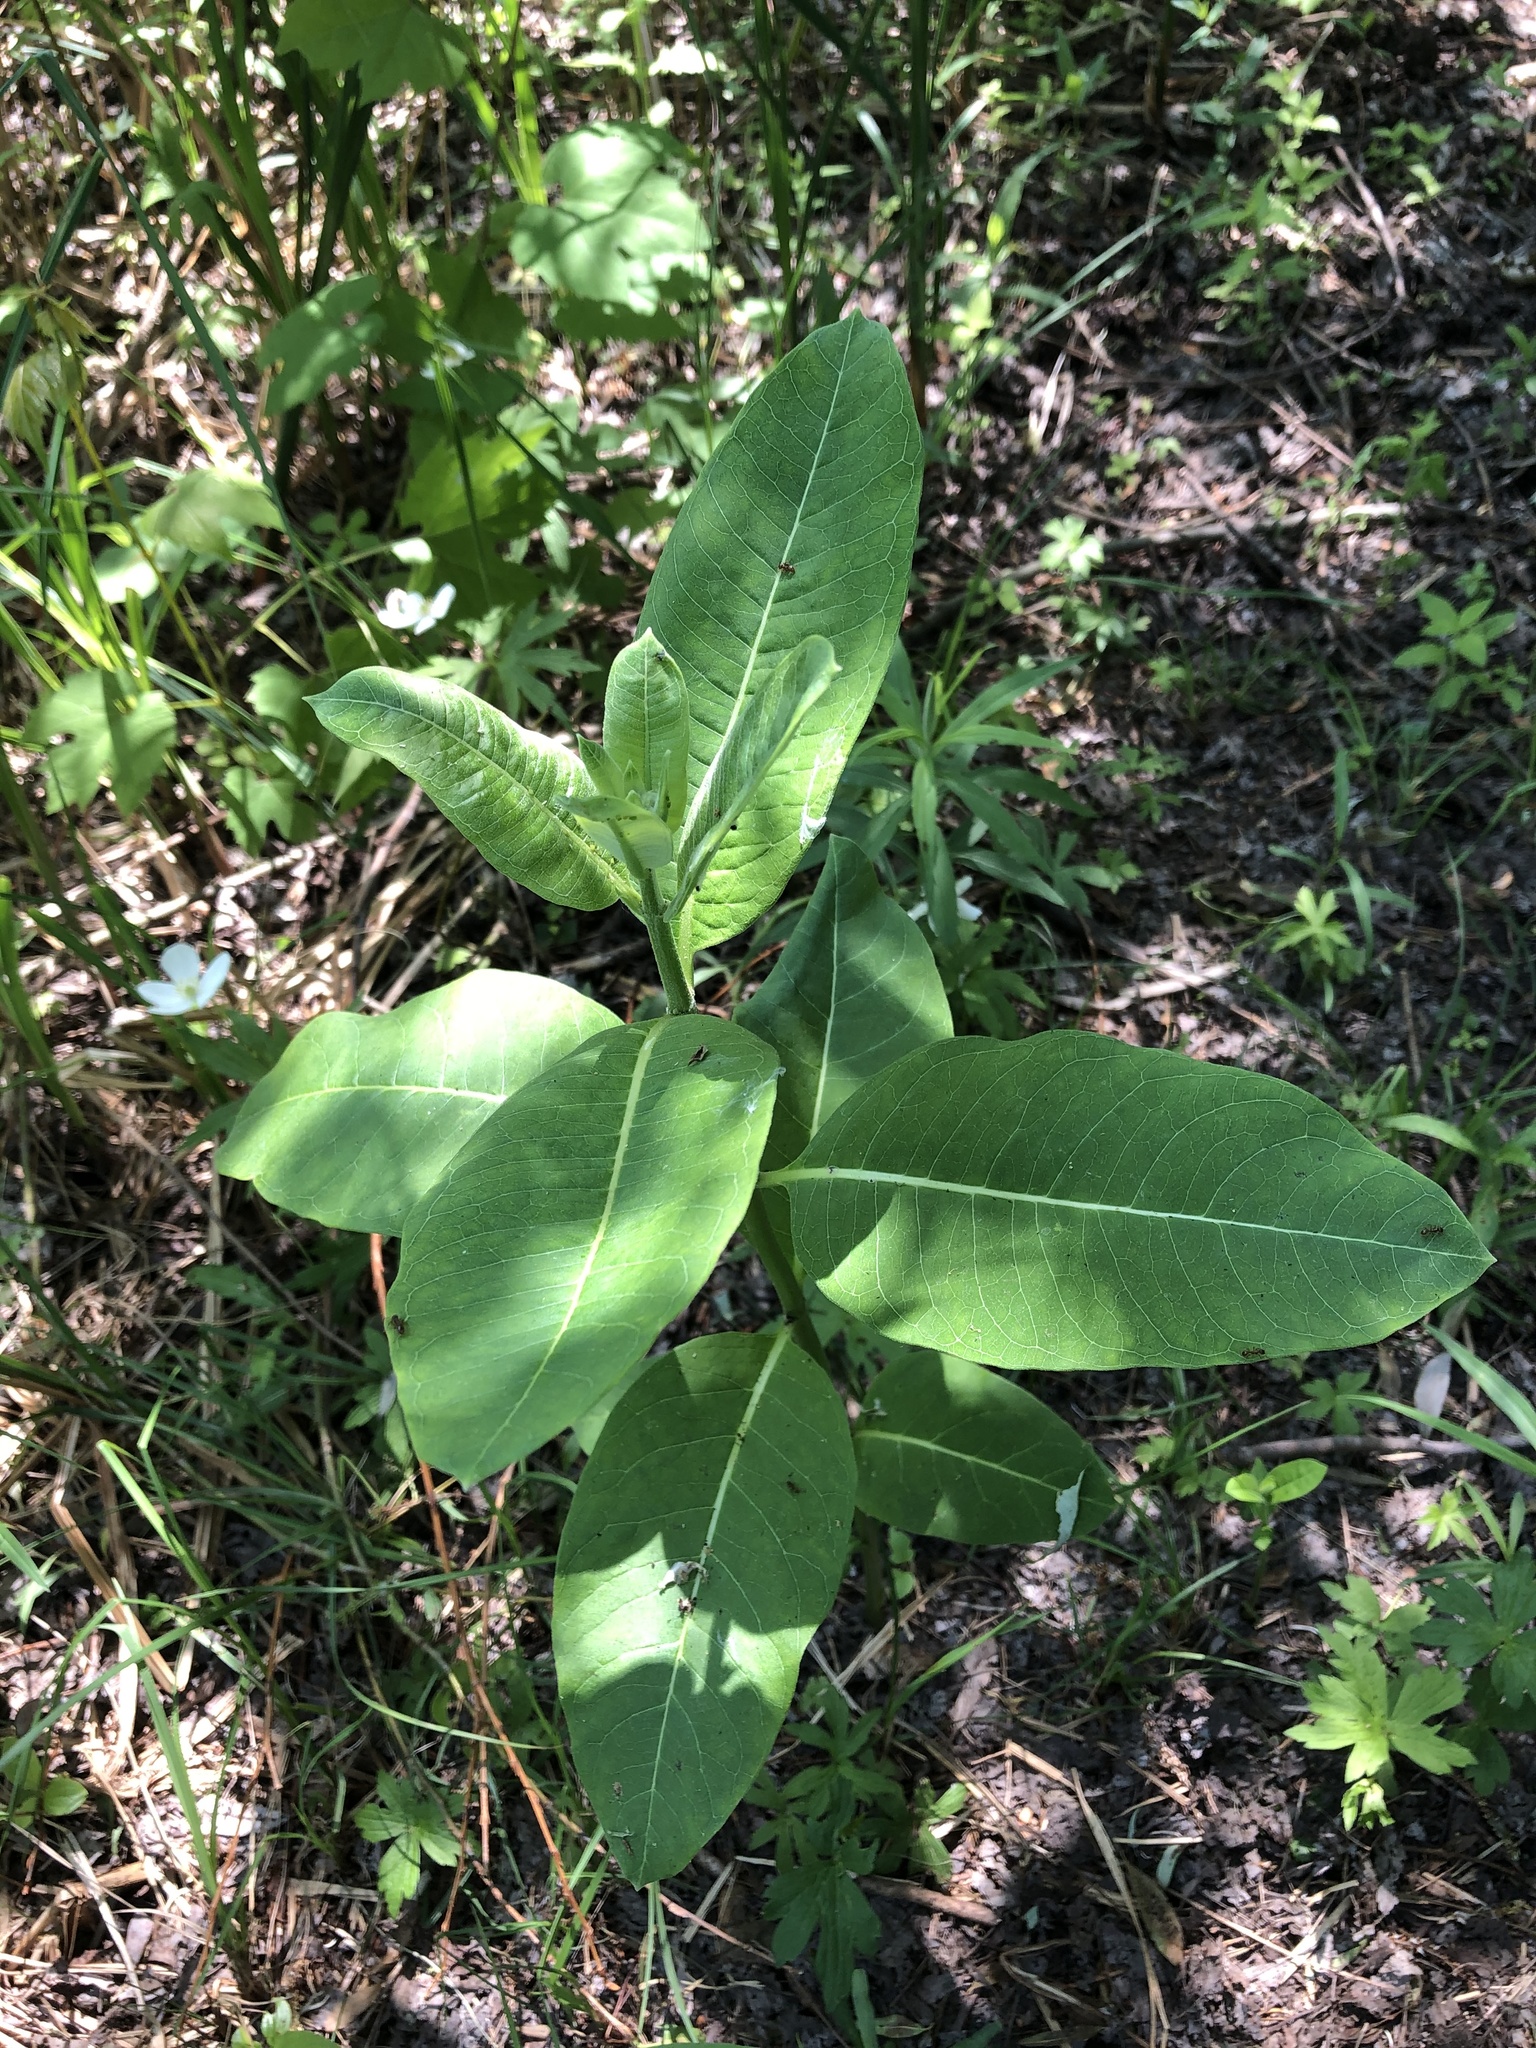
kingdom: Plantae
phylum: Tracheophyta
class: Magnoliopsida
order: Gentianales
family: Apocynaceae
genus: Asclepias
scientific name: Asclepias syriaca
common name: Common milkweed
